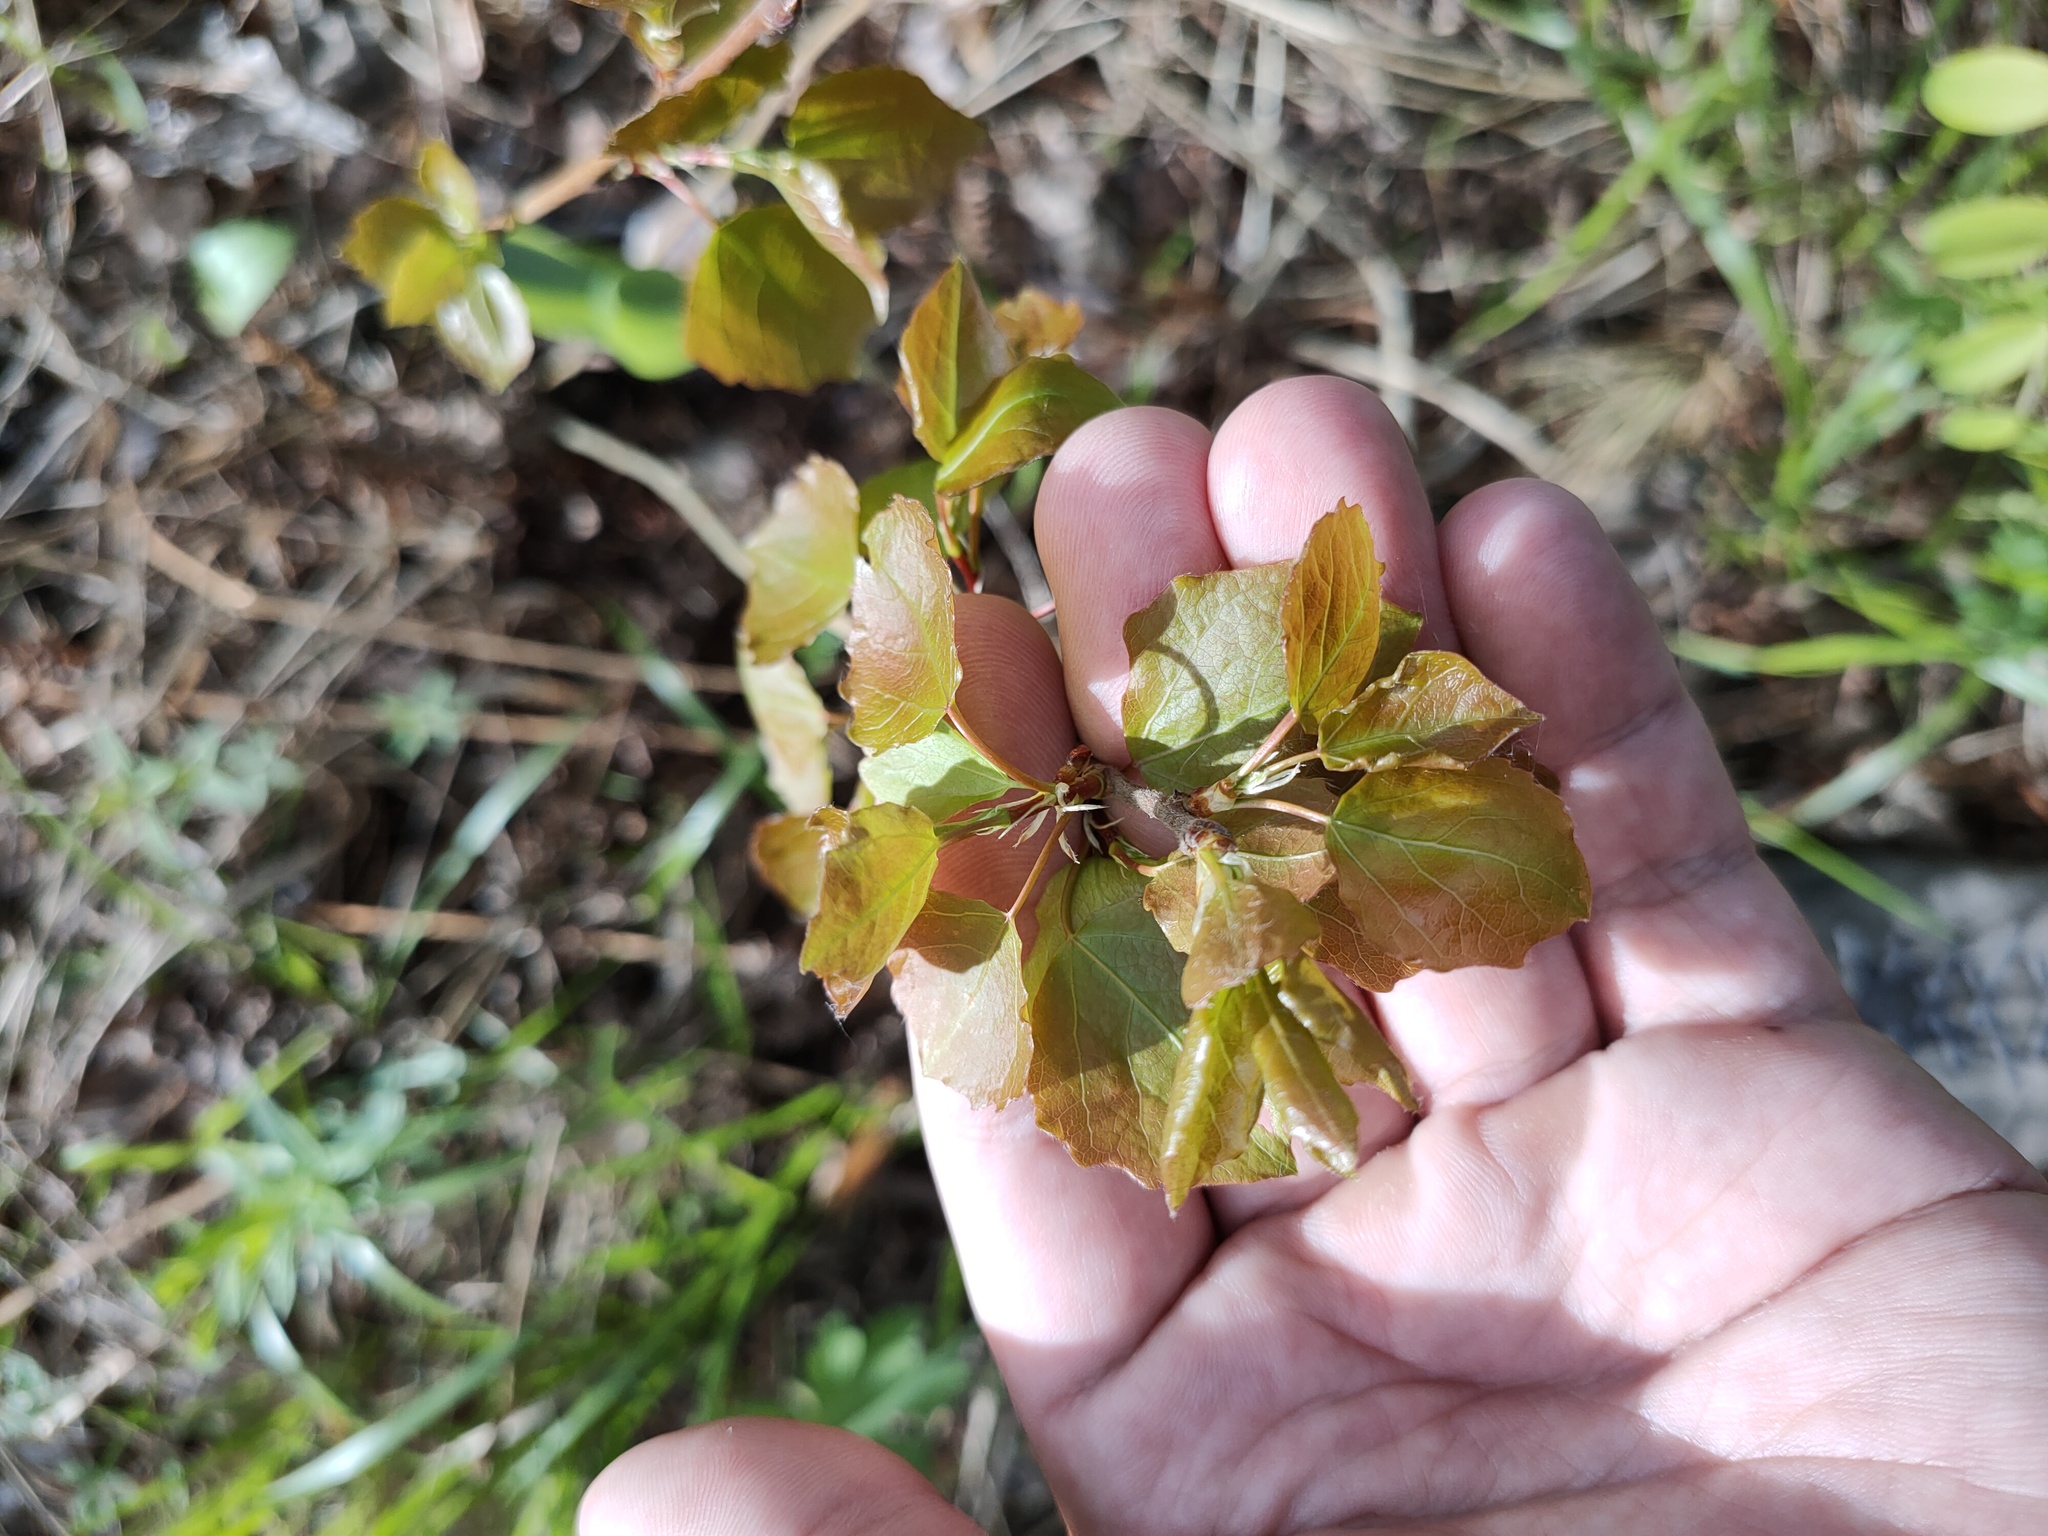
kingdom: Plantae
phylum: Tracheophyta
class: Magnoliopsida
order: Malpighiales
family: Salicaceae
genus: Populus
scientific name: Populus tremula
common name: European aspen
